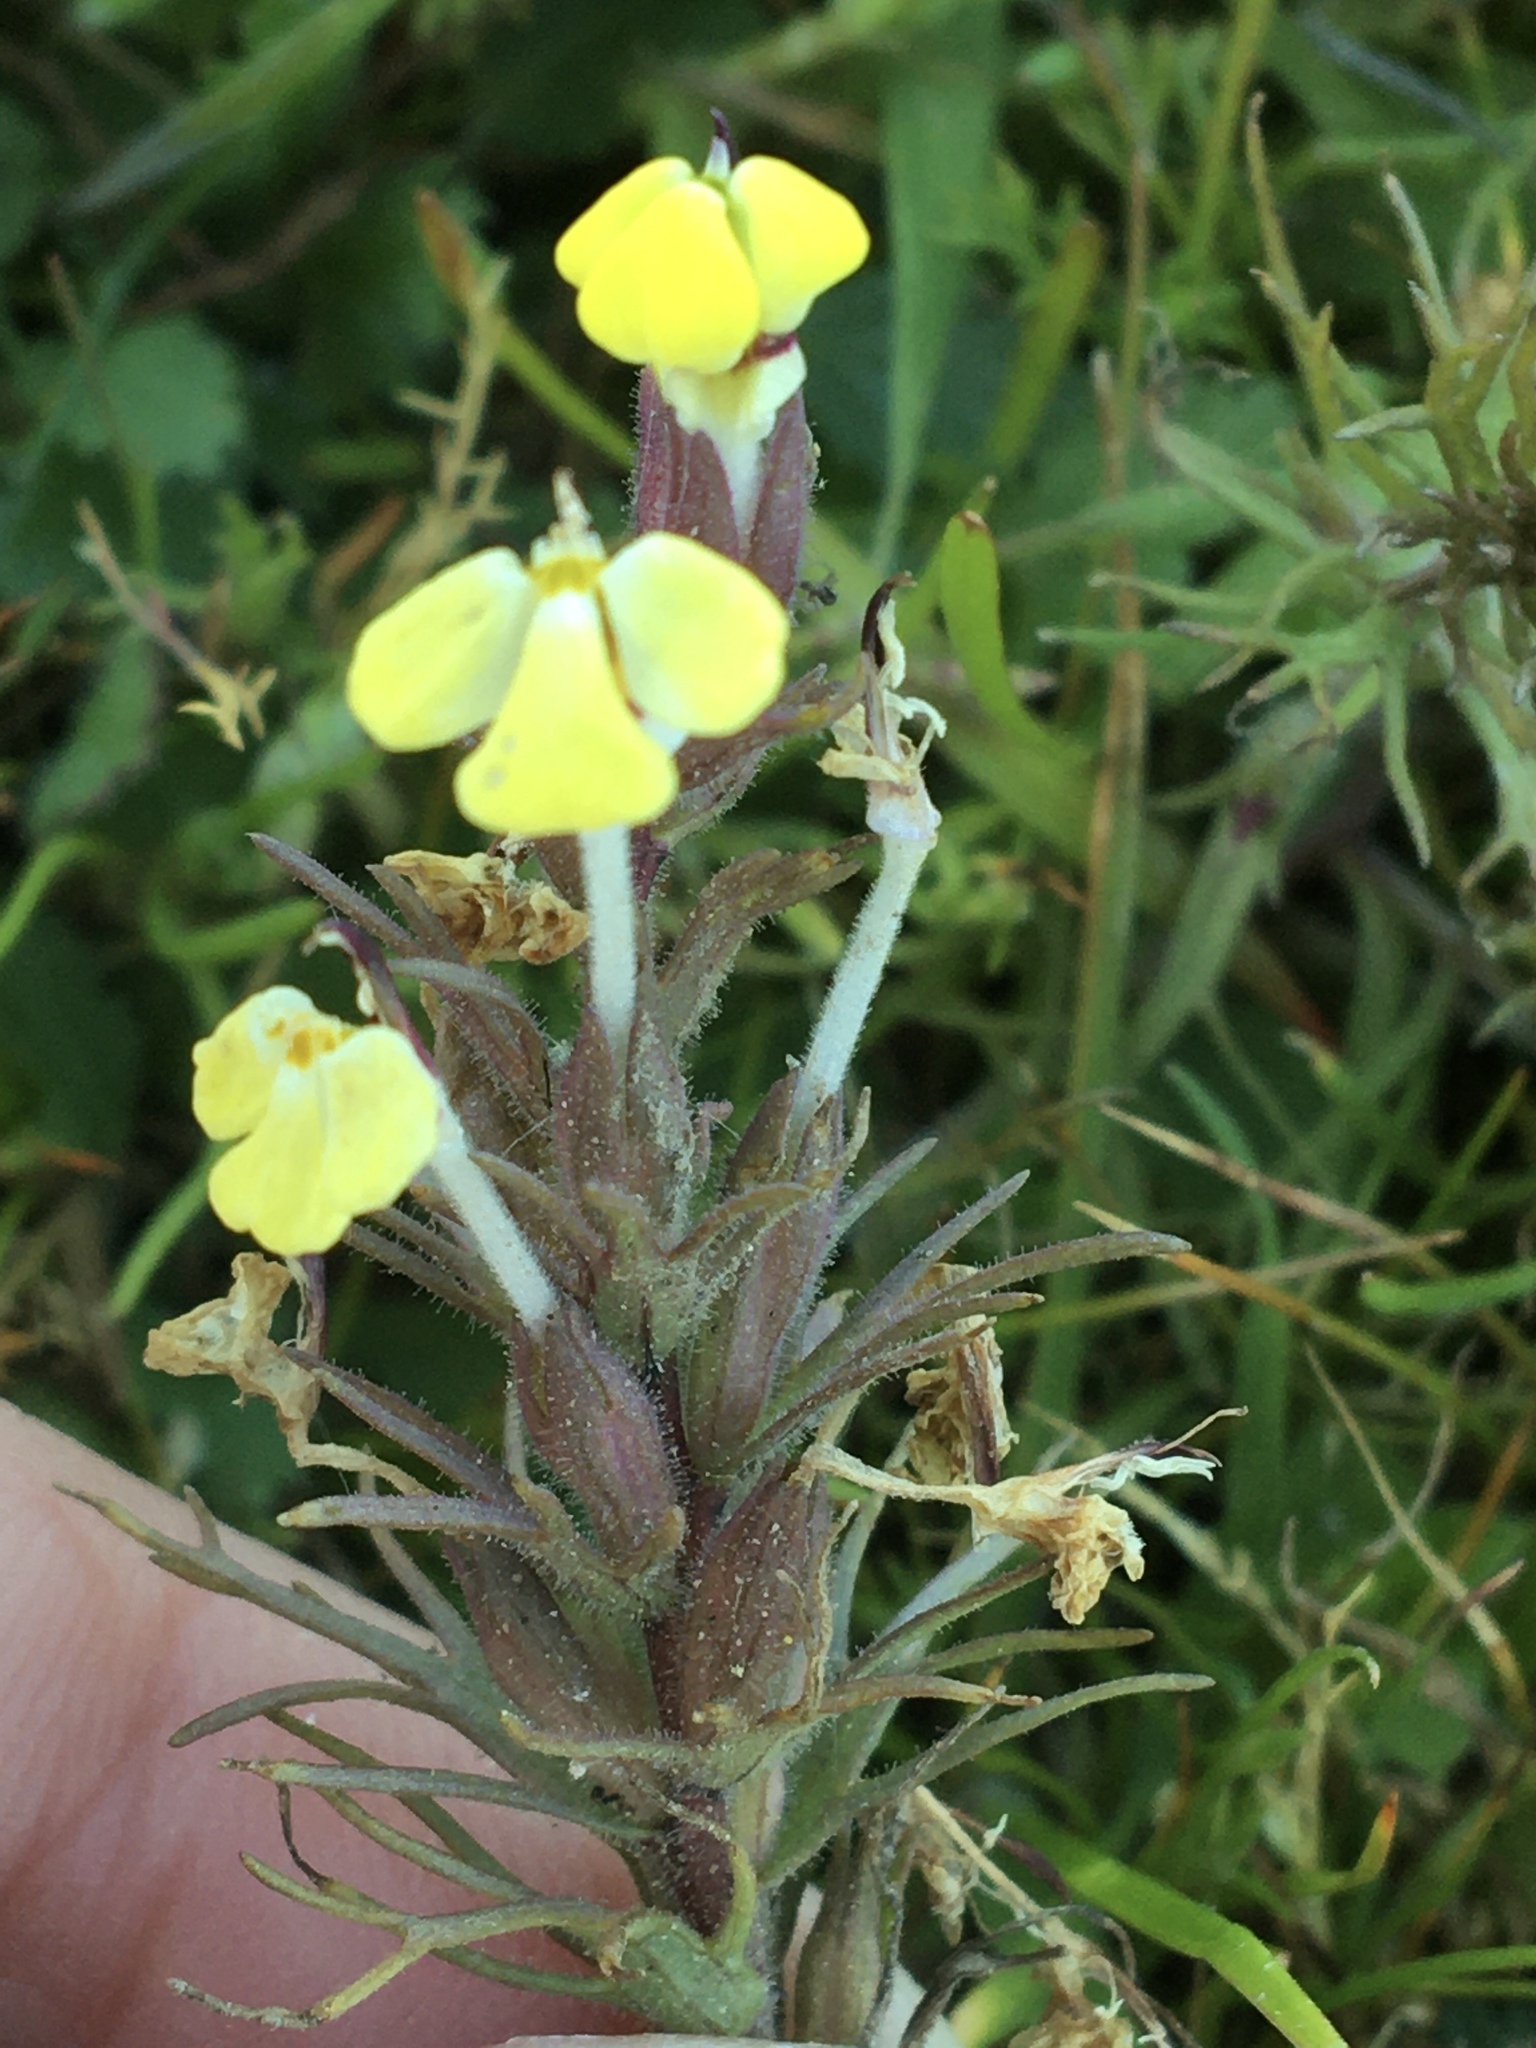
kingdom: Plantae
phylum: Tracheophyta
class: Magnoliopsida
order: Lamiales
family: Orobanchaceae
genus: Triphysaria
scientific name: Triphysaria eriantha
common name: Johnny-tuck
